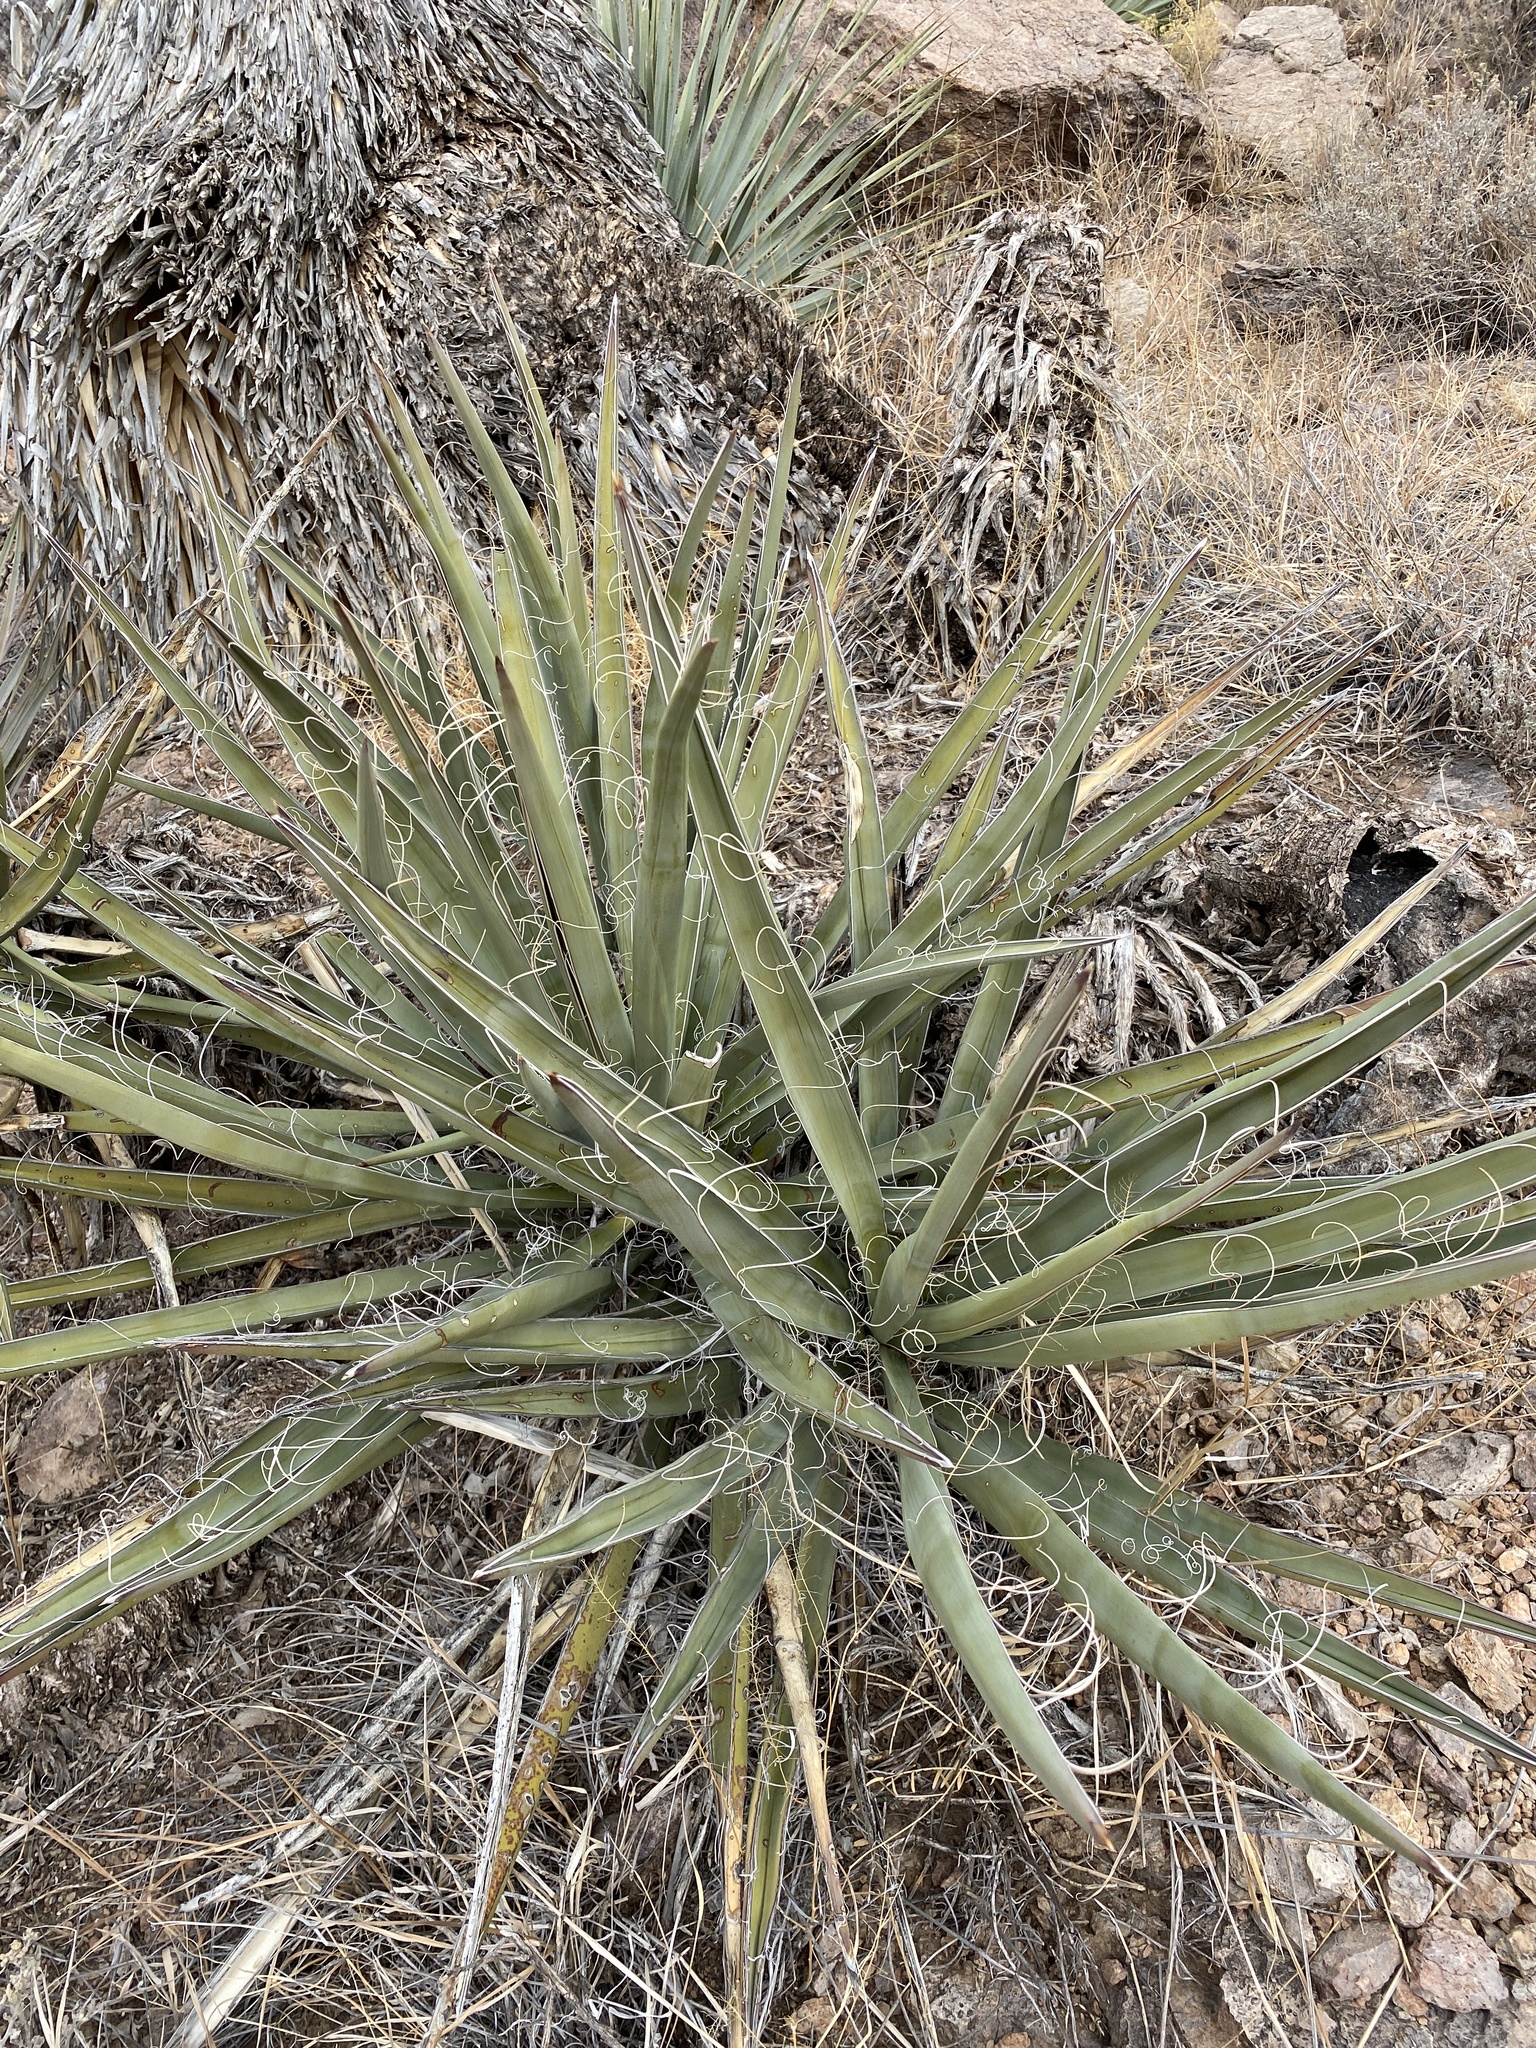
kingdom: Plantae
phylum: Tracheophyta
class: Liliopsida
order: Asparagales
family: Asparagaceae
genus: Yucca
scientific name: Yucca baccata
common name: Banana yucca
